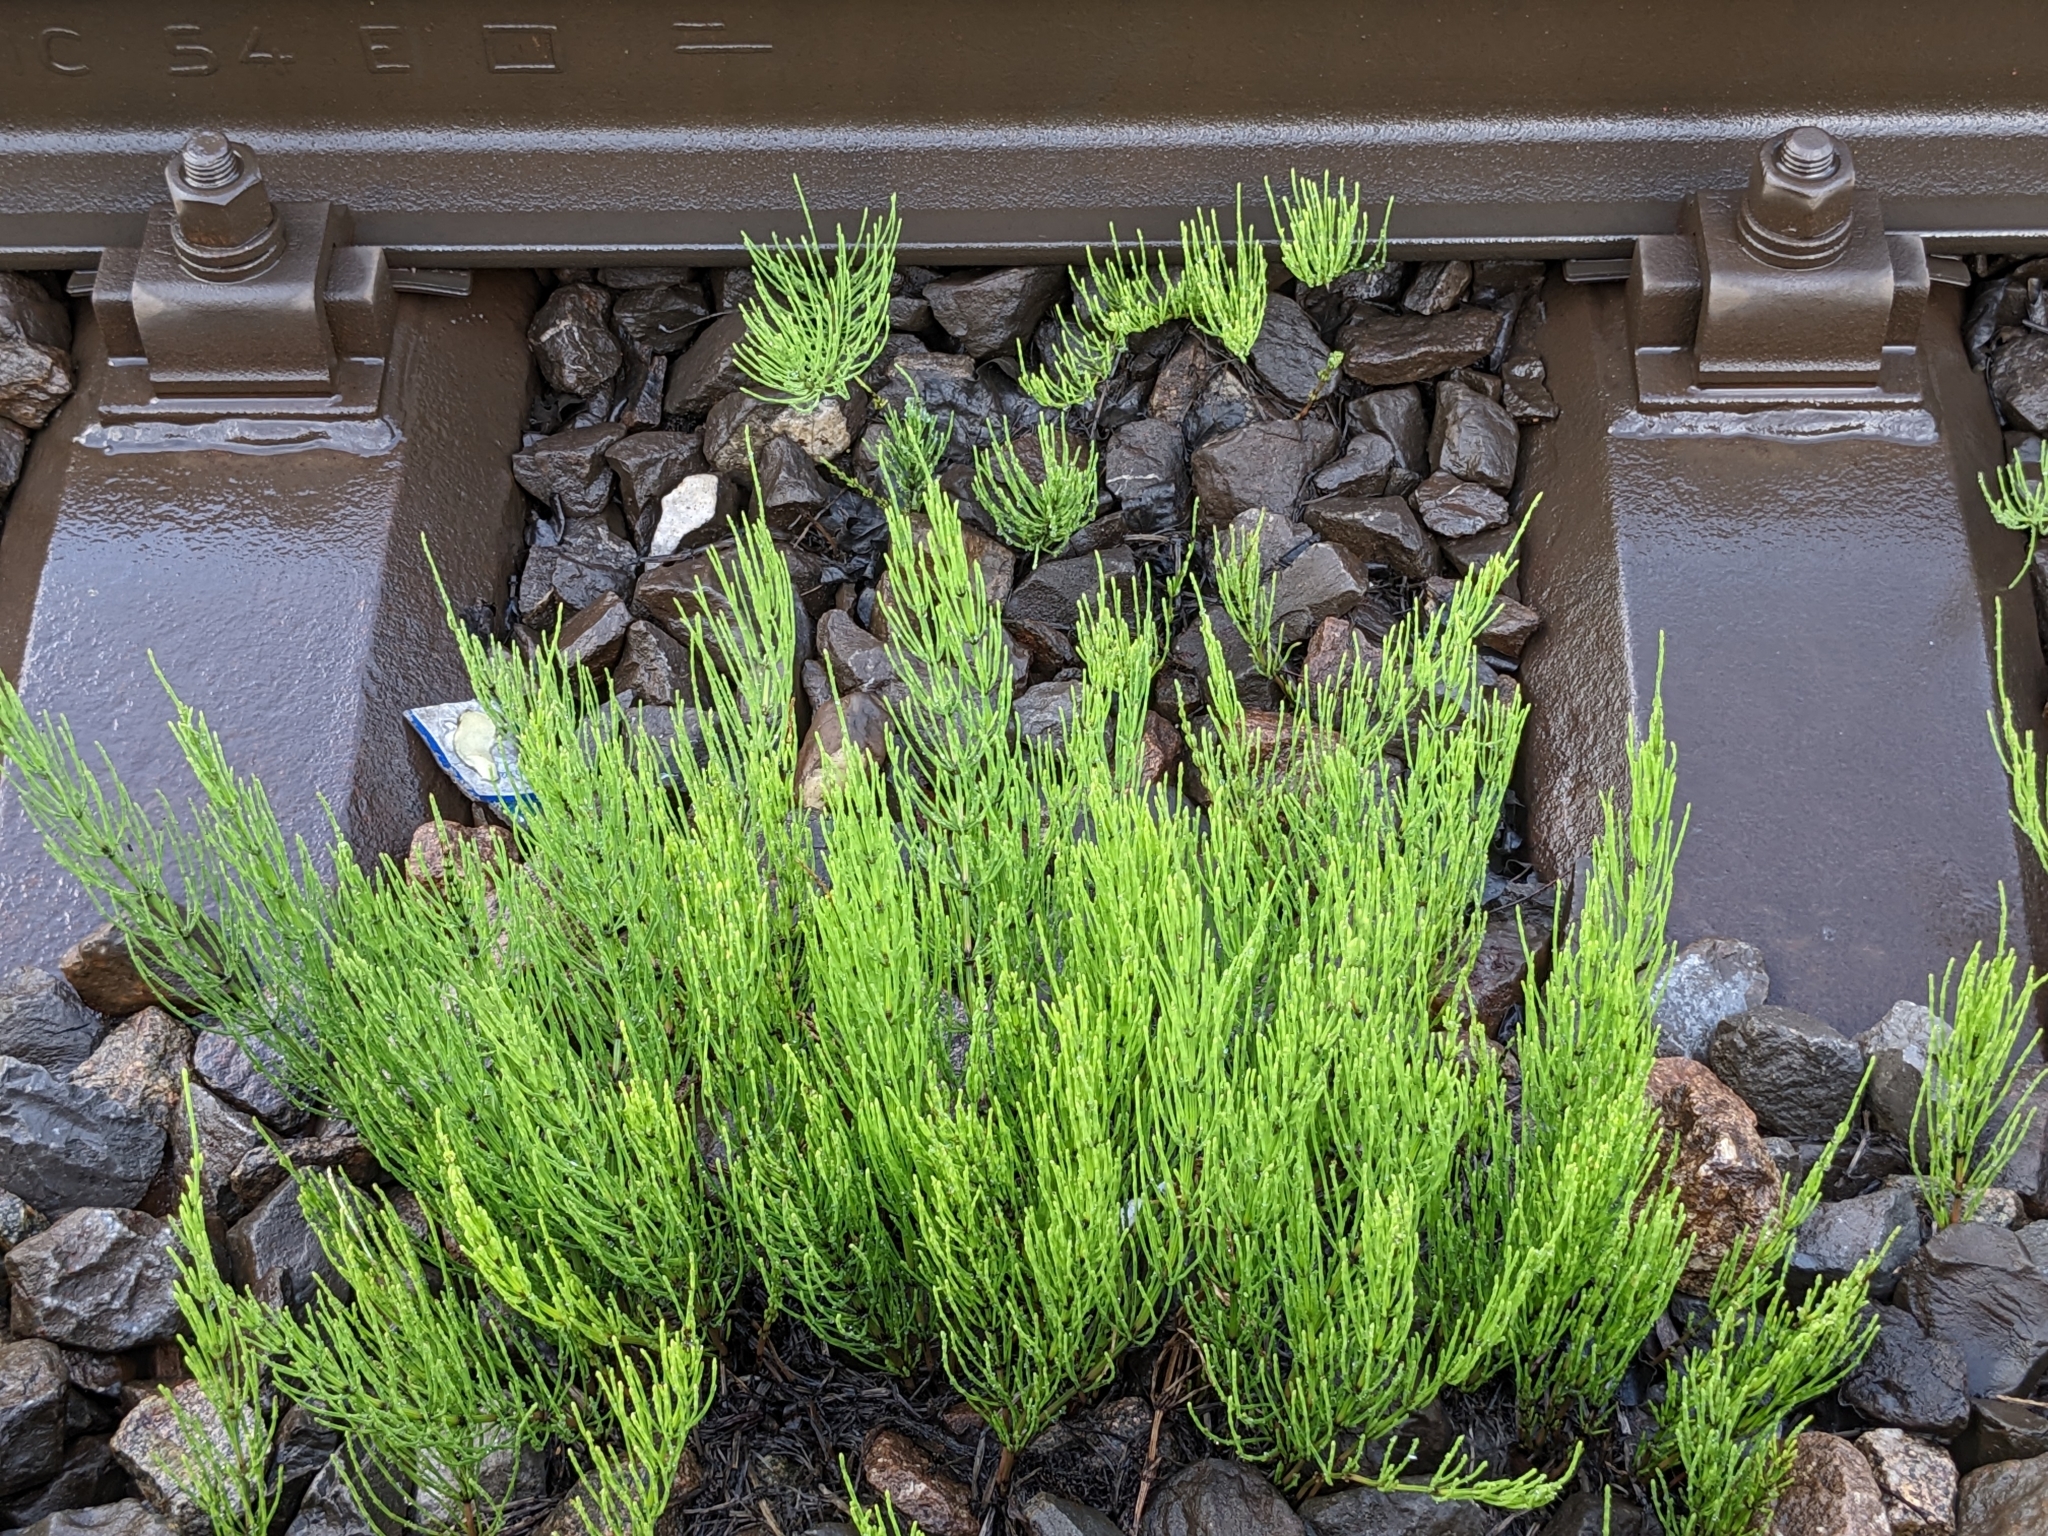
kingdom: Plantae
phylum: Tracheophyta
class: Polypodiopsida
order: Equisetales
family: Equisetaceae
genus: Equisetum
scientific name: Equisetum arvense
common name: Field horsetail
